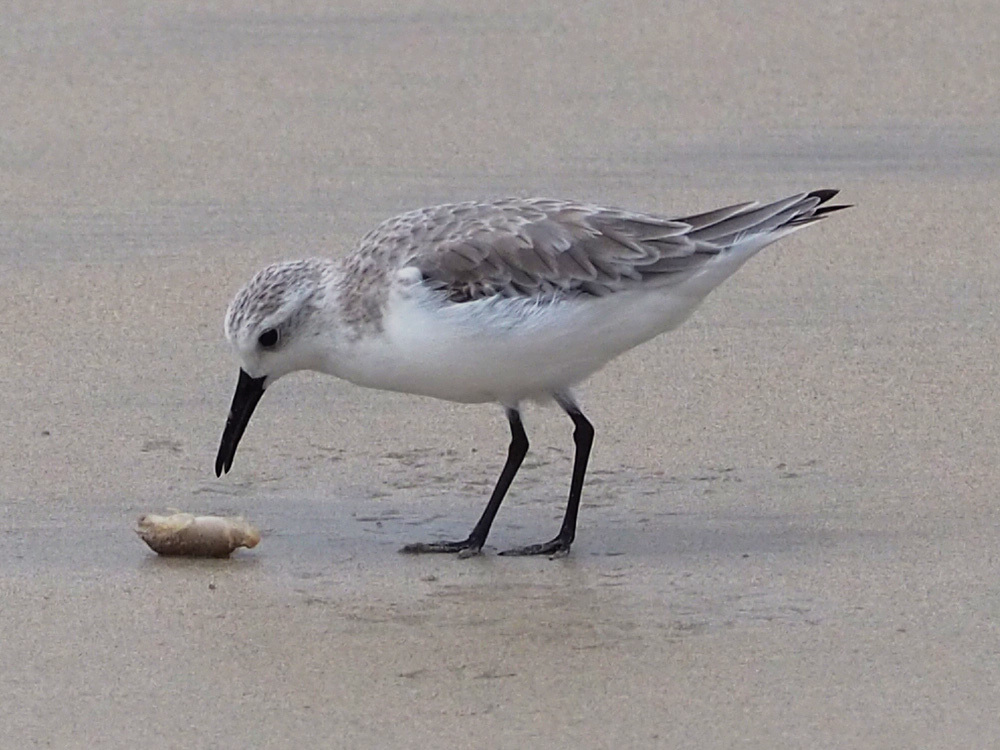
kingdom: Animalia
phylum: Chordata
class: Aves
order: Charadriiformes
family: Scolopacidae
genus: Calidris
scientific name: Calidris alba
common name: Sanderling
